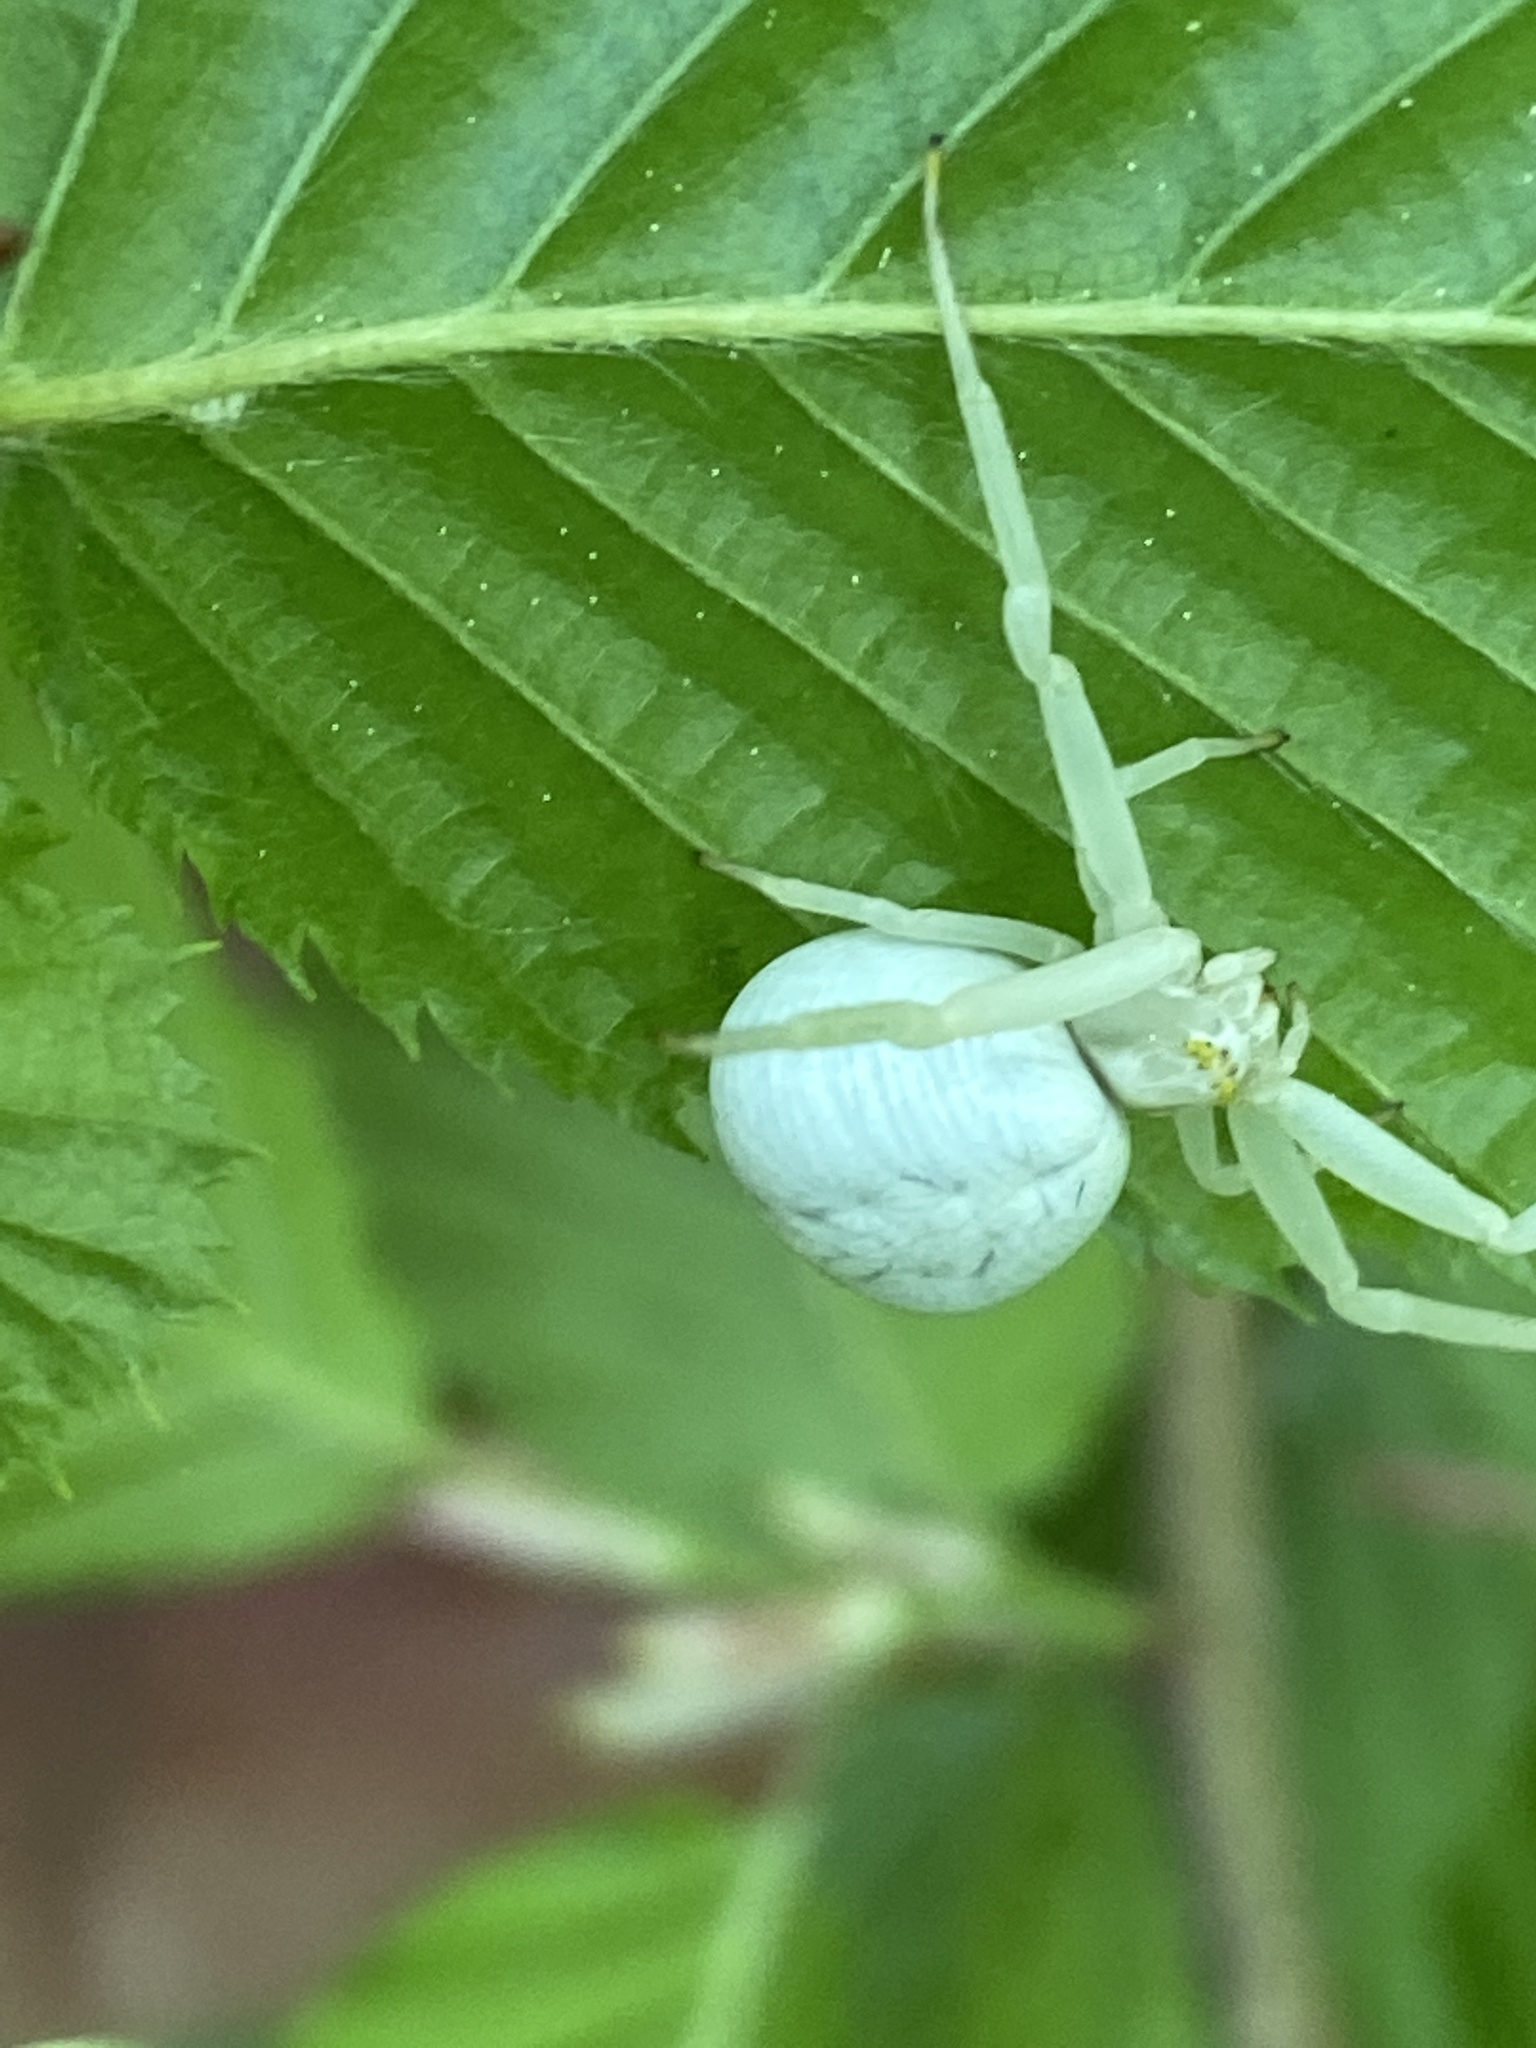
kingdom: Animalia
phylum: Arthropoda
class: Arachnida
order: Araneae
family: Thomisidae
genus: Misumena
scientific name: Misumena vatia
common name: Goldenrod crab spider
